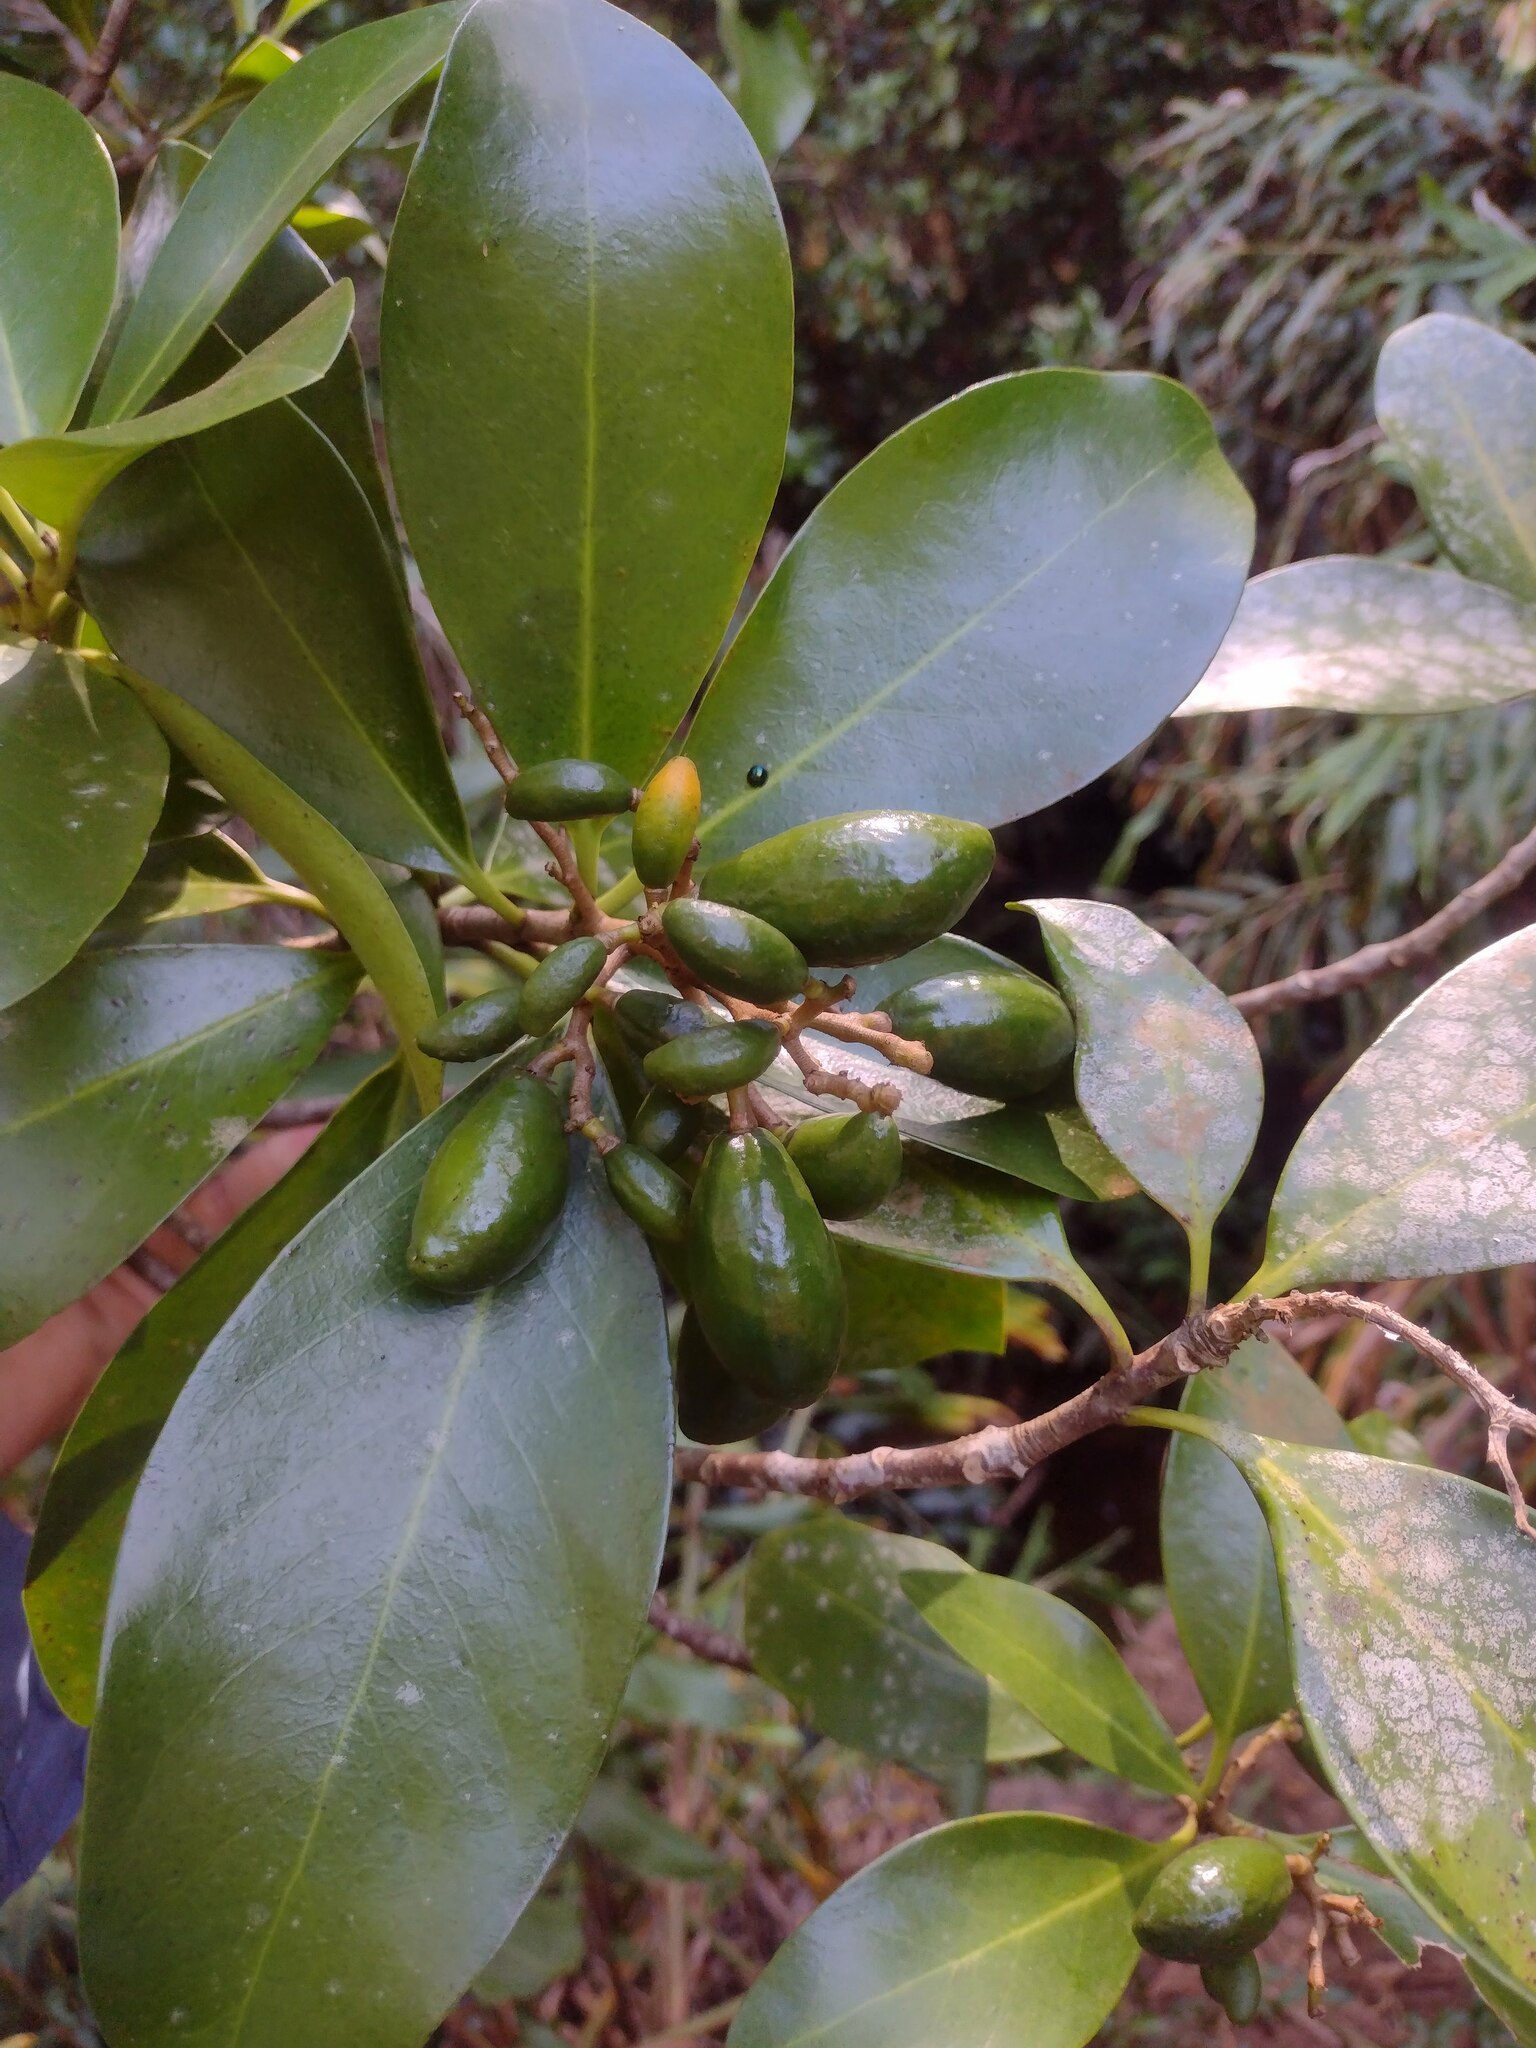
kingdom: Plantae
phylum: Tracheophyta
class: Magnoliopsida
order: Cucurbitales
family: Corynocarpaceae
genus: Corynocarpus
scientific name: Corynocarpus laevigatus
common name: New zealand laurel
